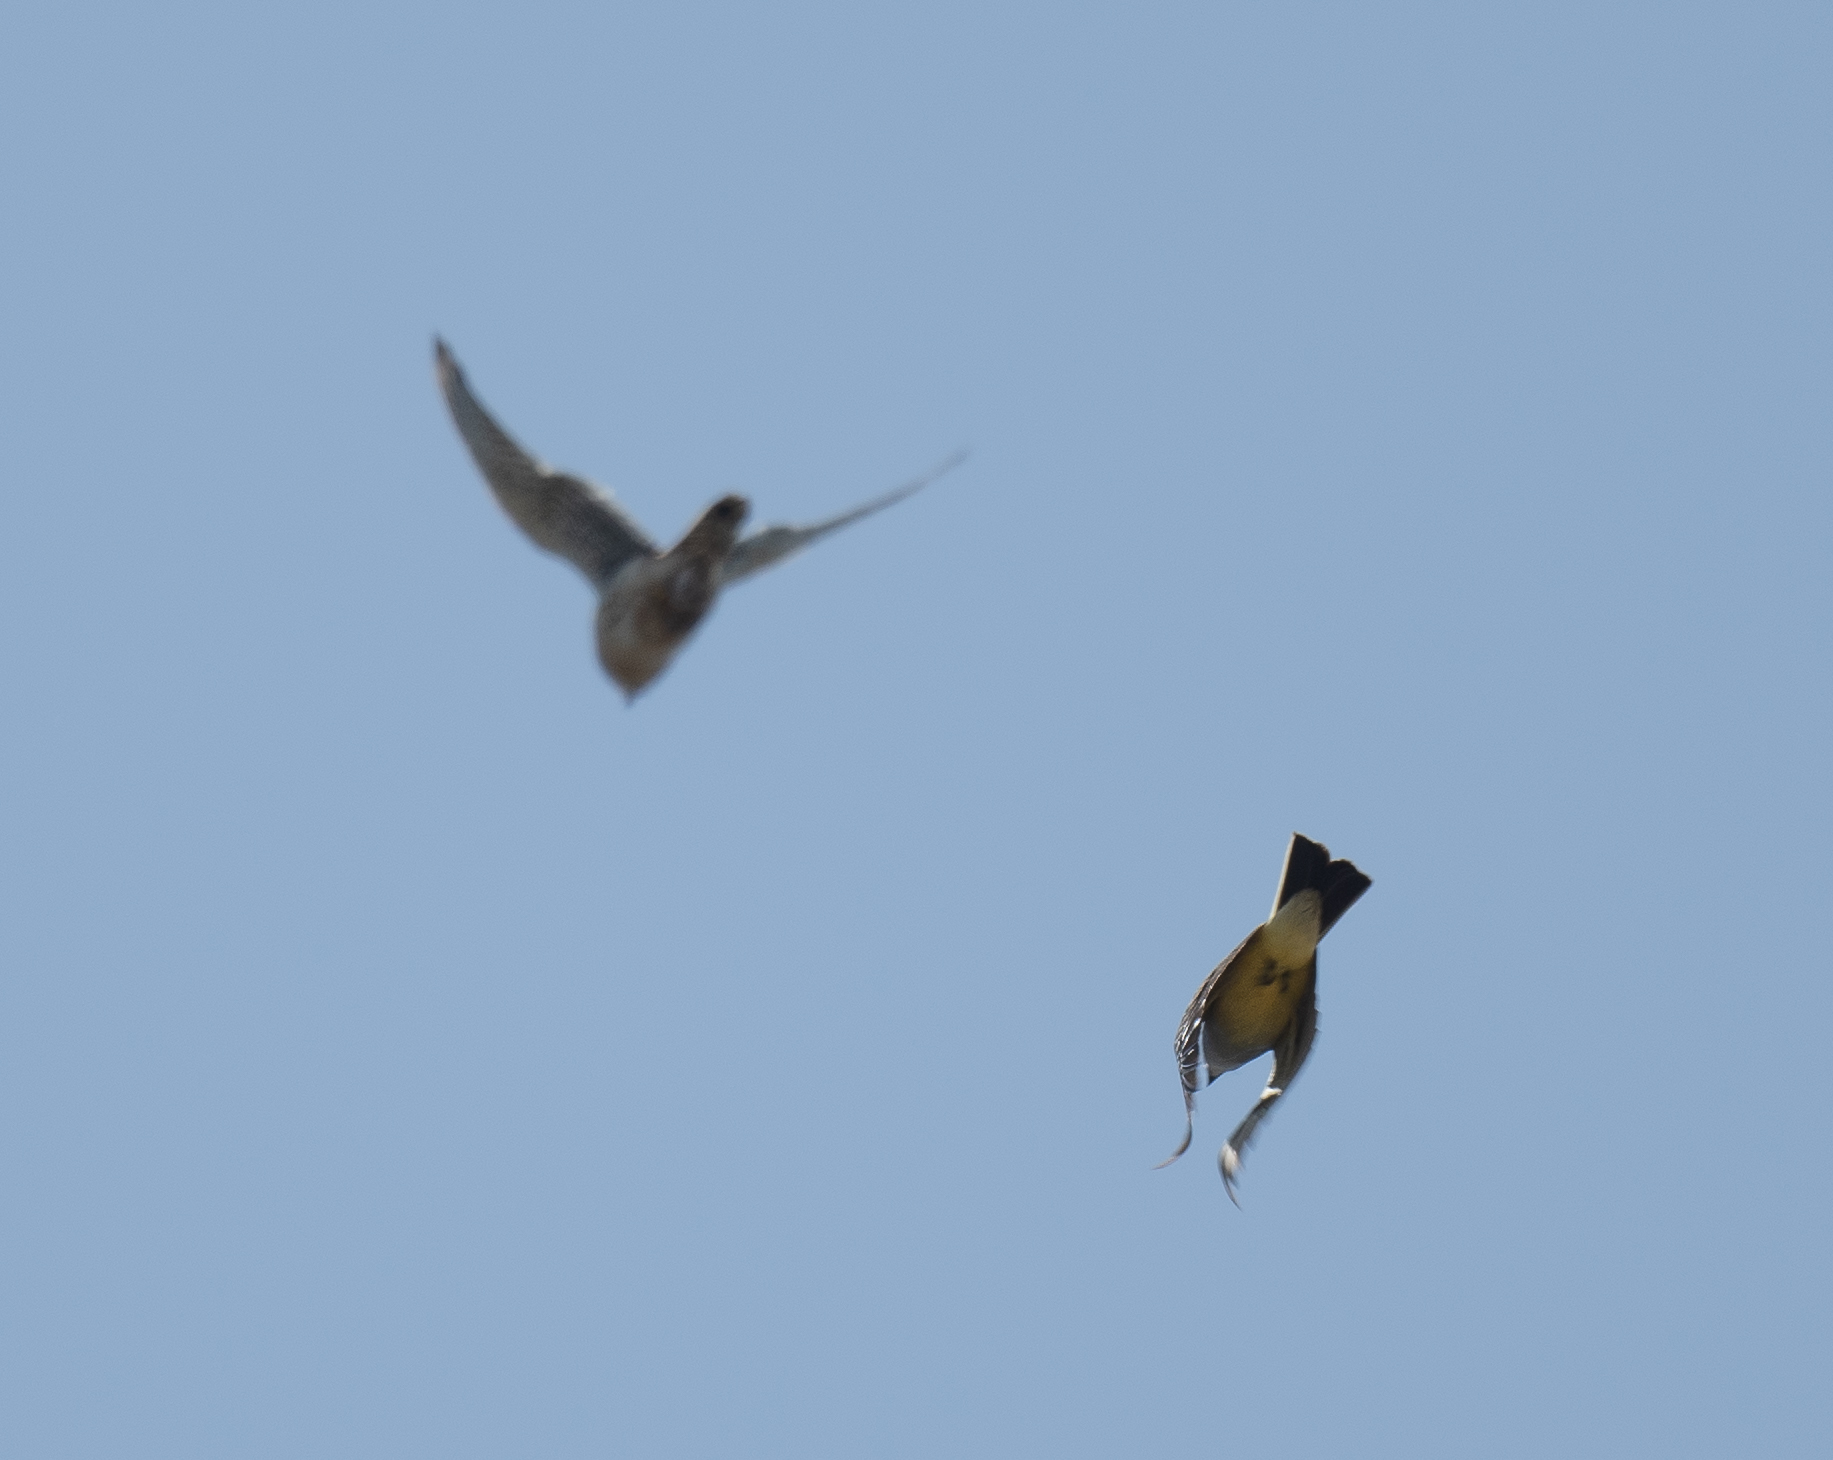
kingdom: Animalia
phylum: Chordata
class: Aves
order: Falconiformes
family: Falconidae
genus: Falco
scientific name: Falco sparverius
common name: American kestrel
